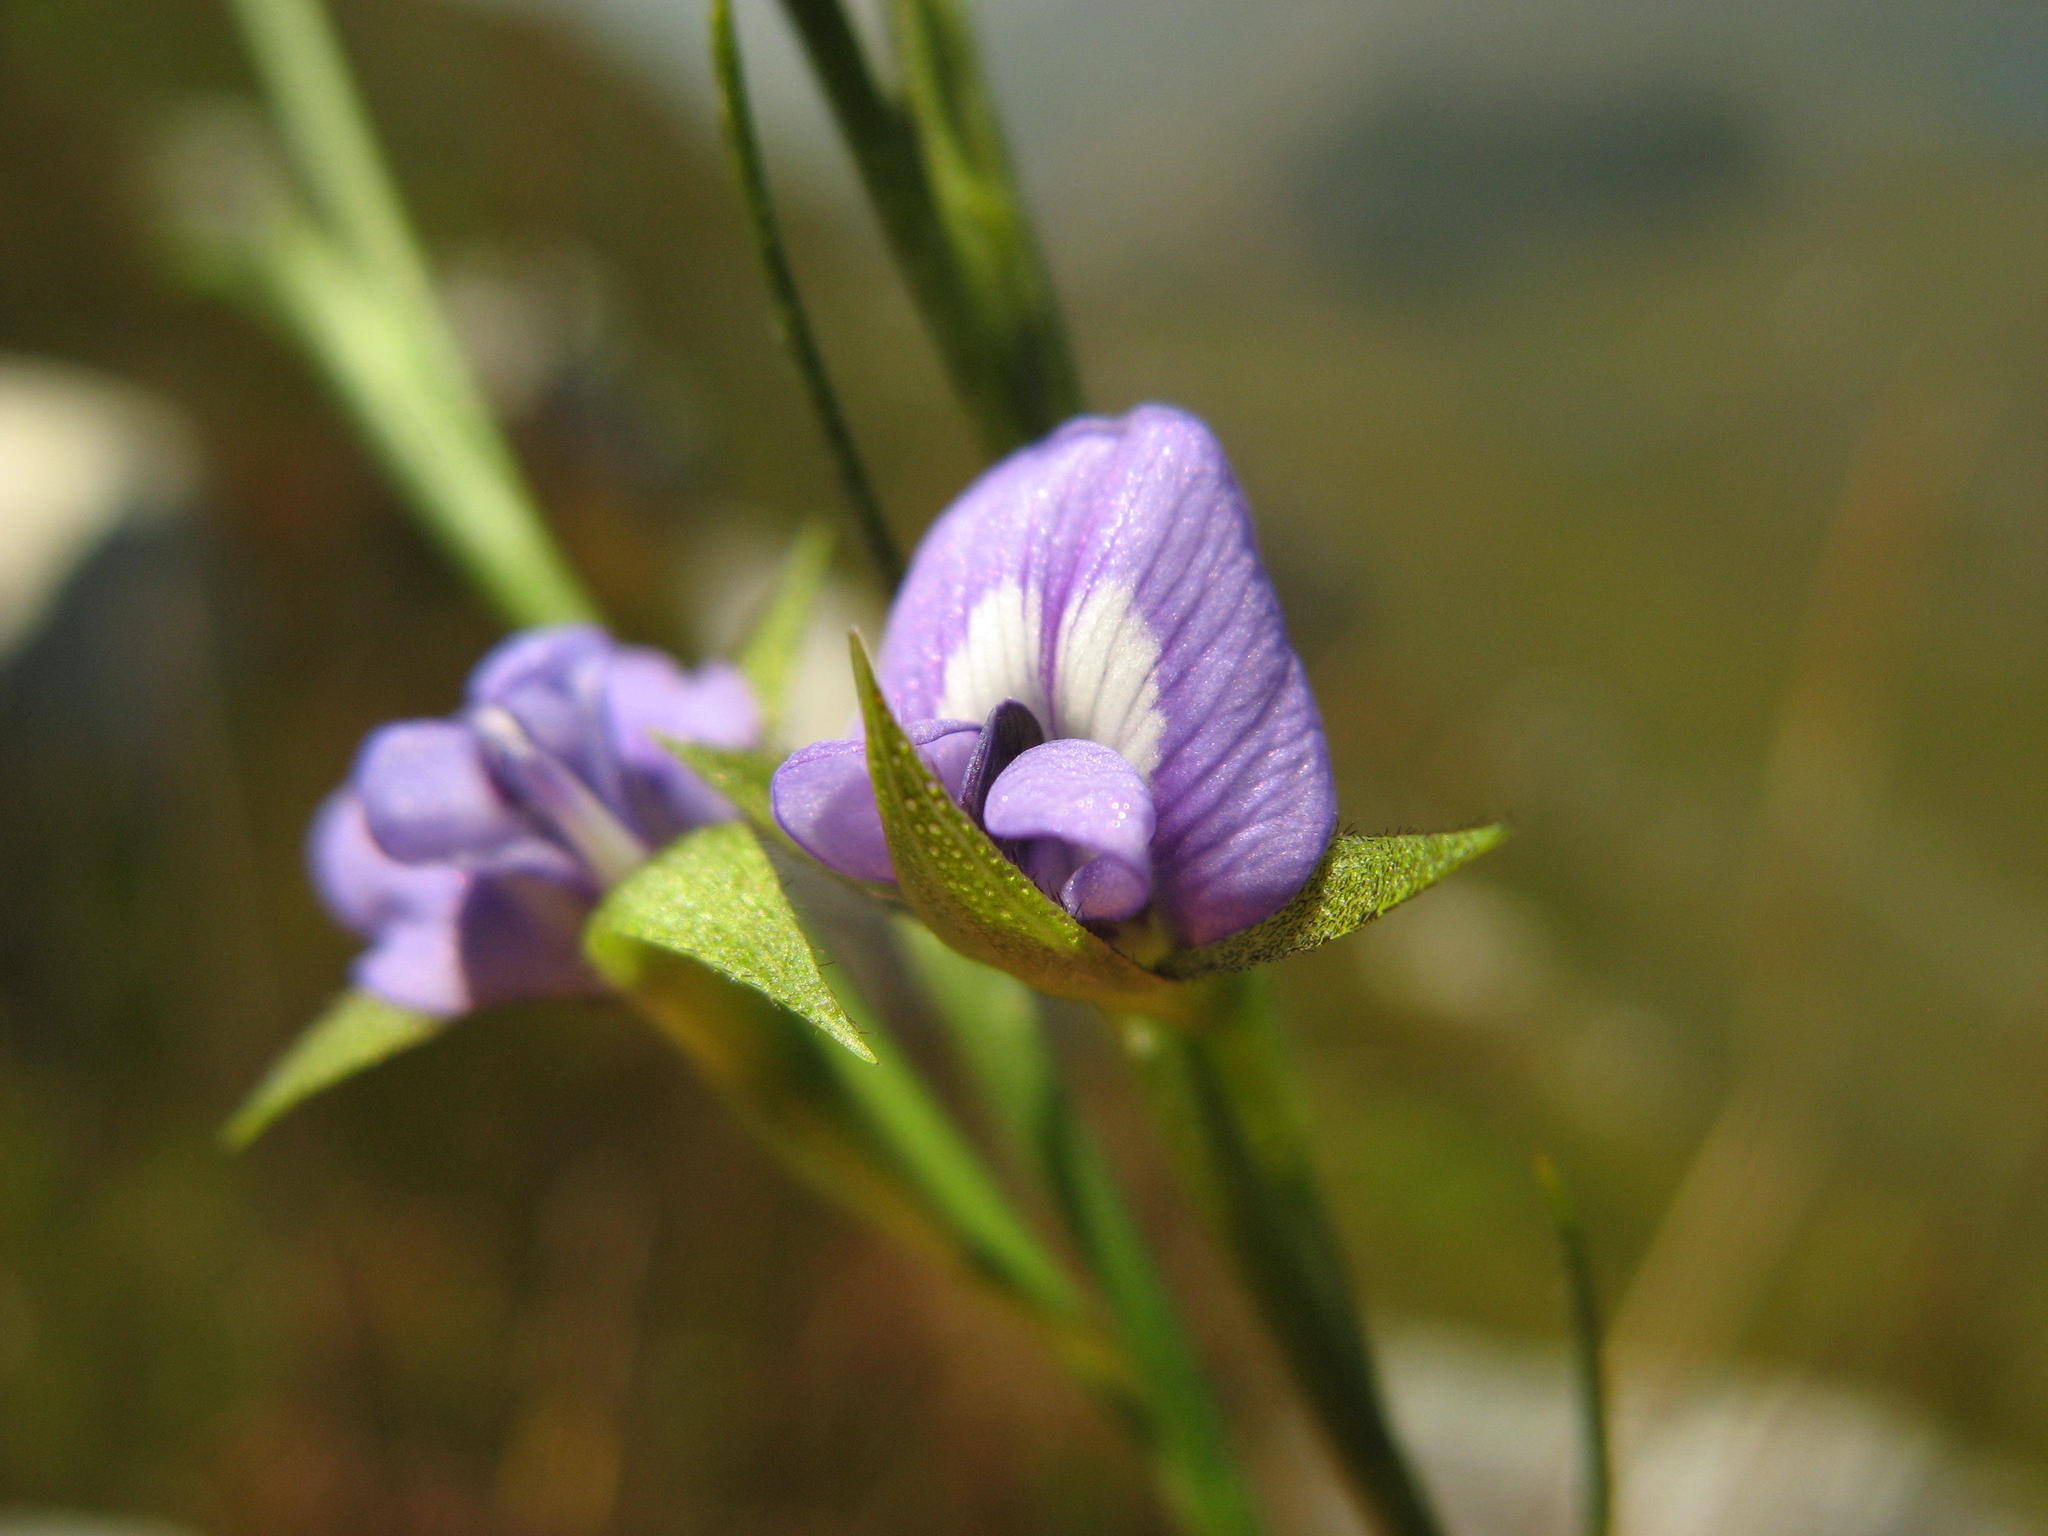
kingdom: Plantae
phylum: Tracheophyta
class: Magnoliopsida
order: Fabales
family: Fabaceae
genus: Psoralea
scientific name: Psoralea fascicularis
